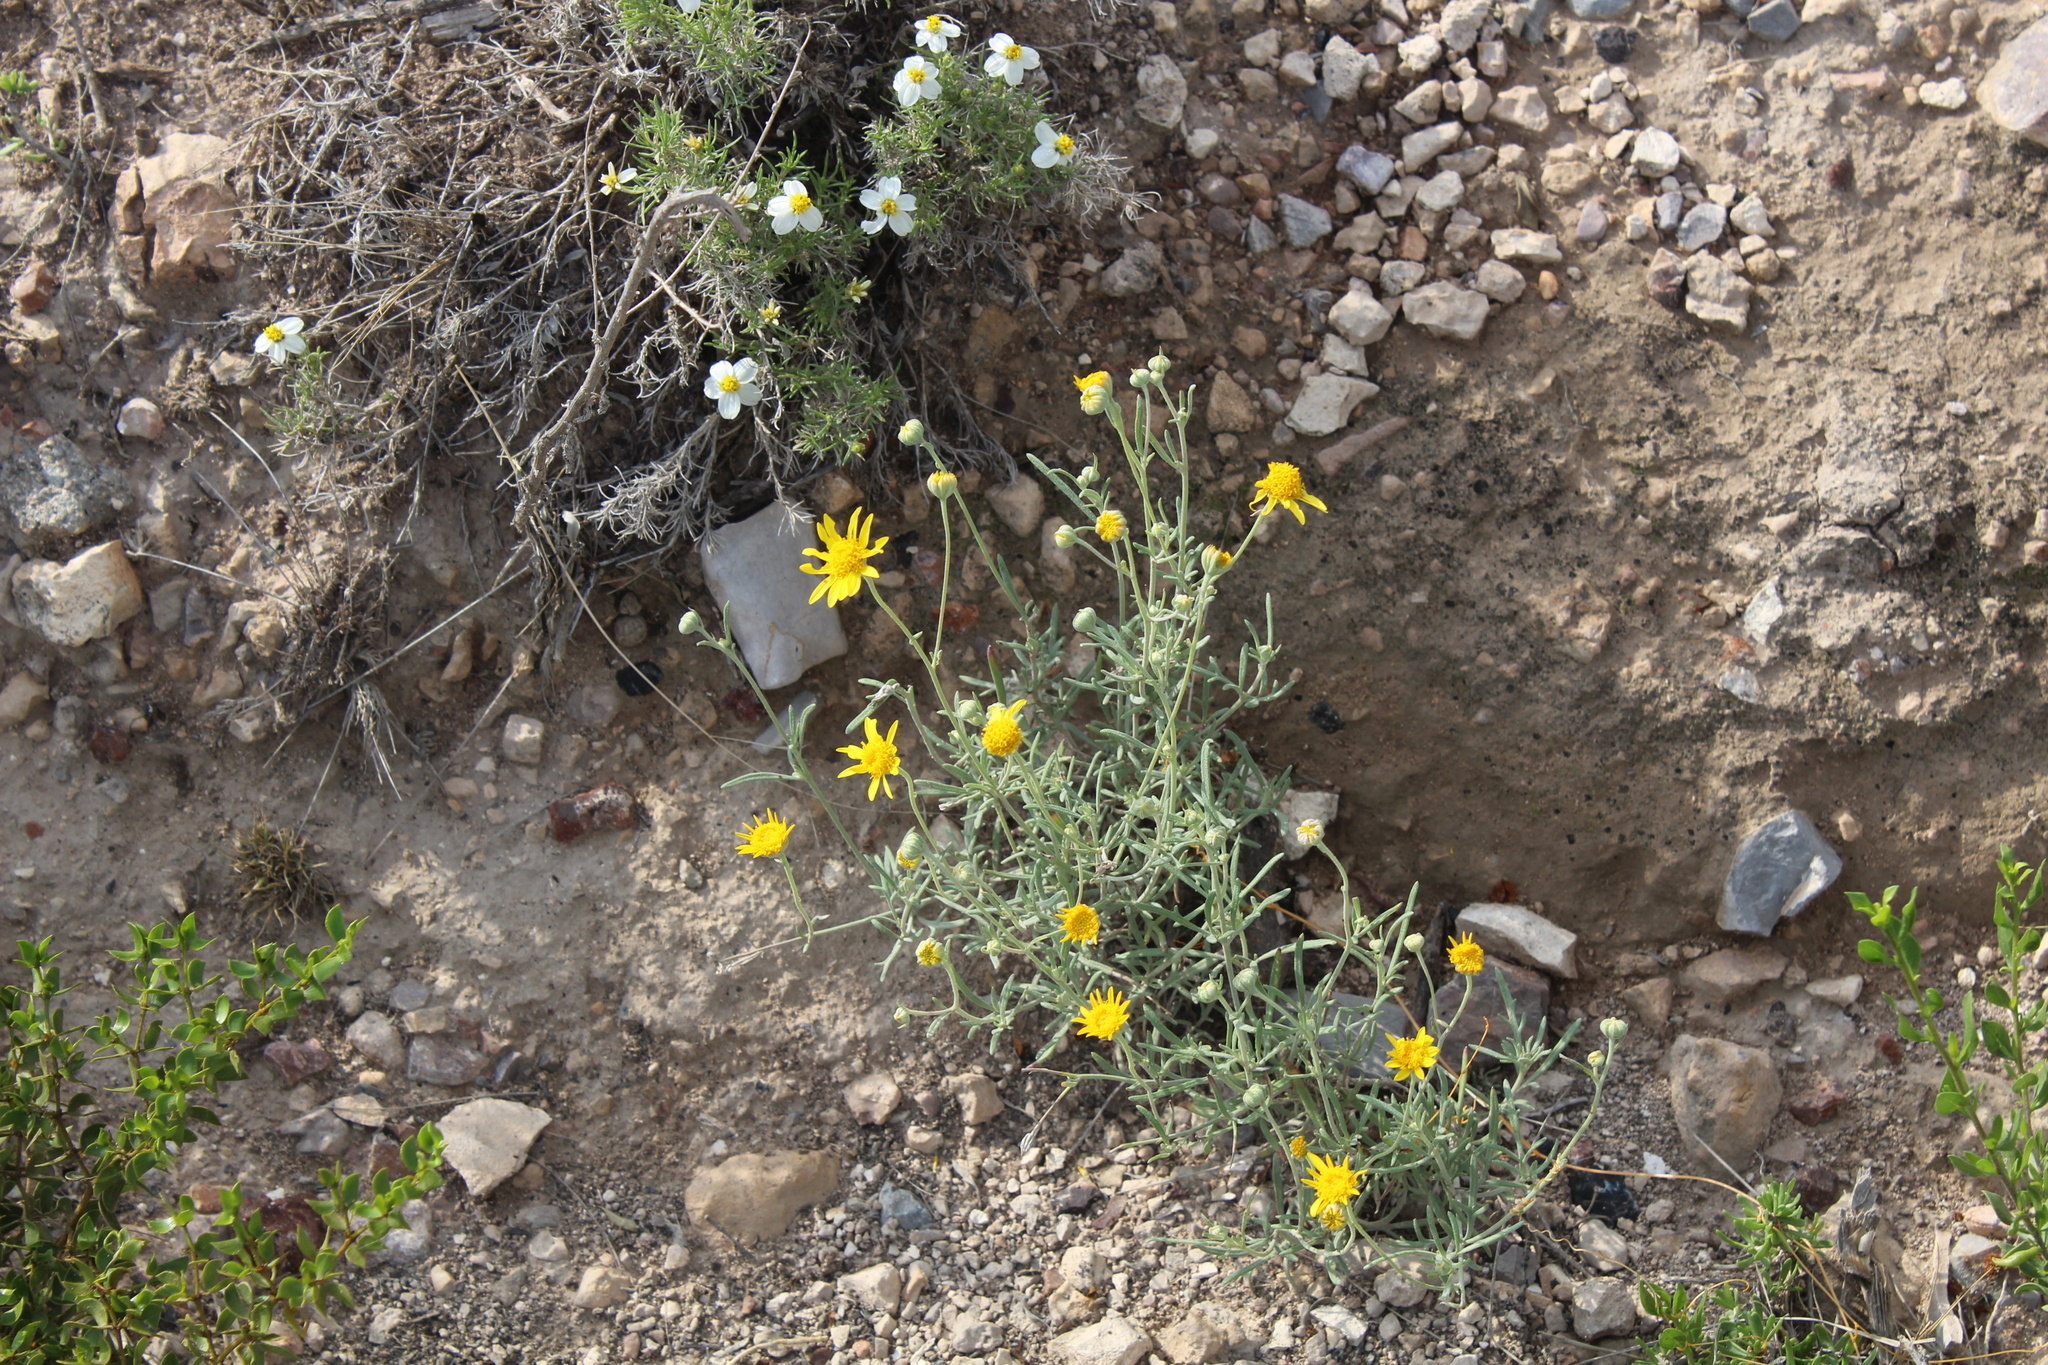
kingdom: Plantae
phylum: Tracheophyta
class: Magnoliopsida
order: Asterales
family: Asteraceae
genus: Picradeniopsis
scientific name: Picradeniopsis schaffneri
